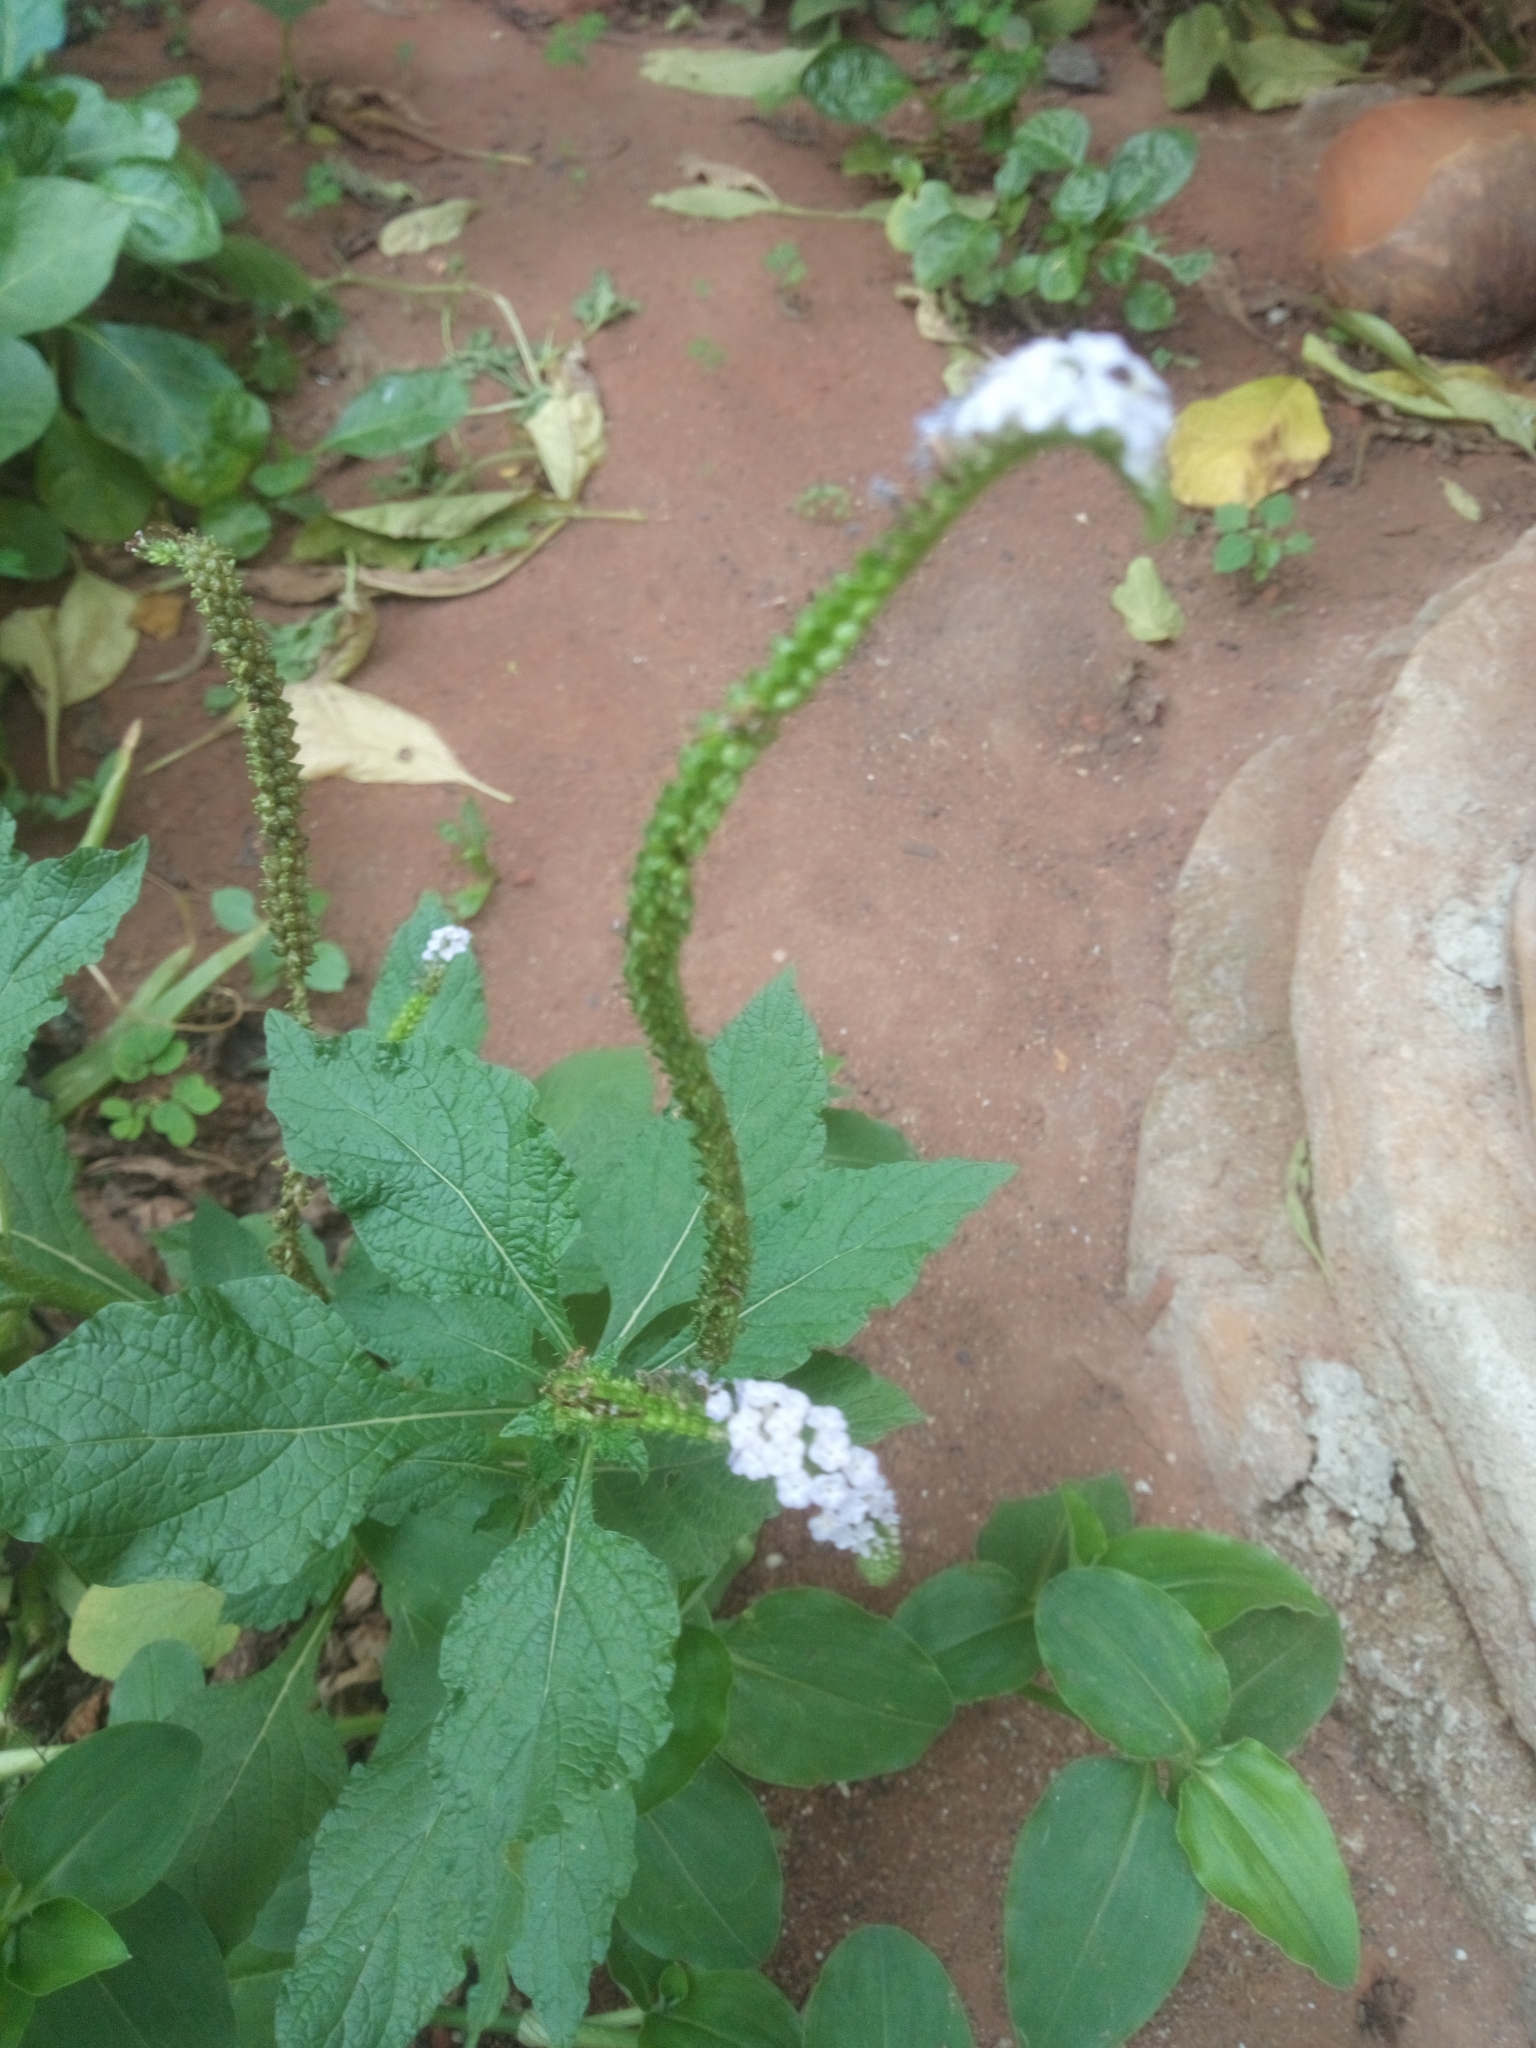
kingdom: Plantae
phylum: Tracheophyta
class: Magnoliopsida
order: Boraginales
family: Heliotropiaceae
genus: Heliotropium
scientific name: Heliotropium indicum
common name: Indian heliotrope
